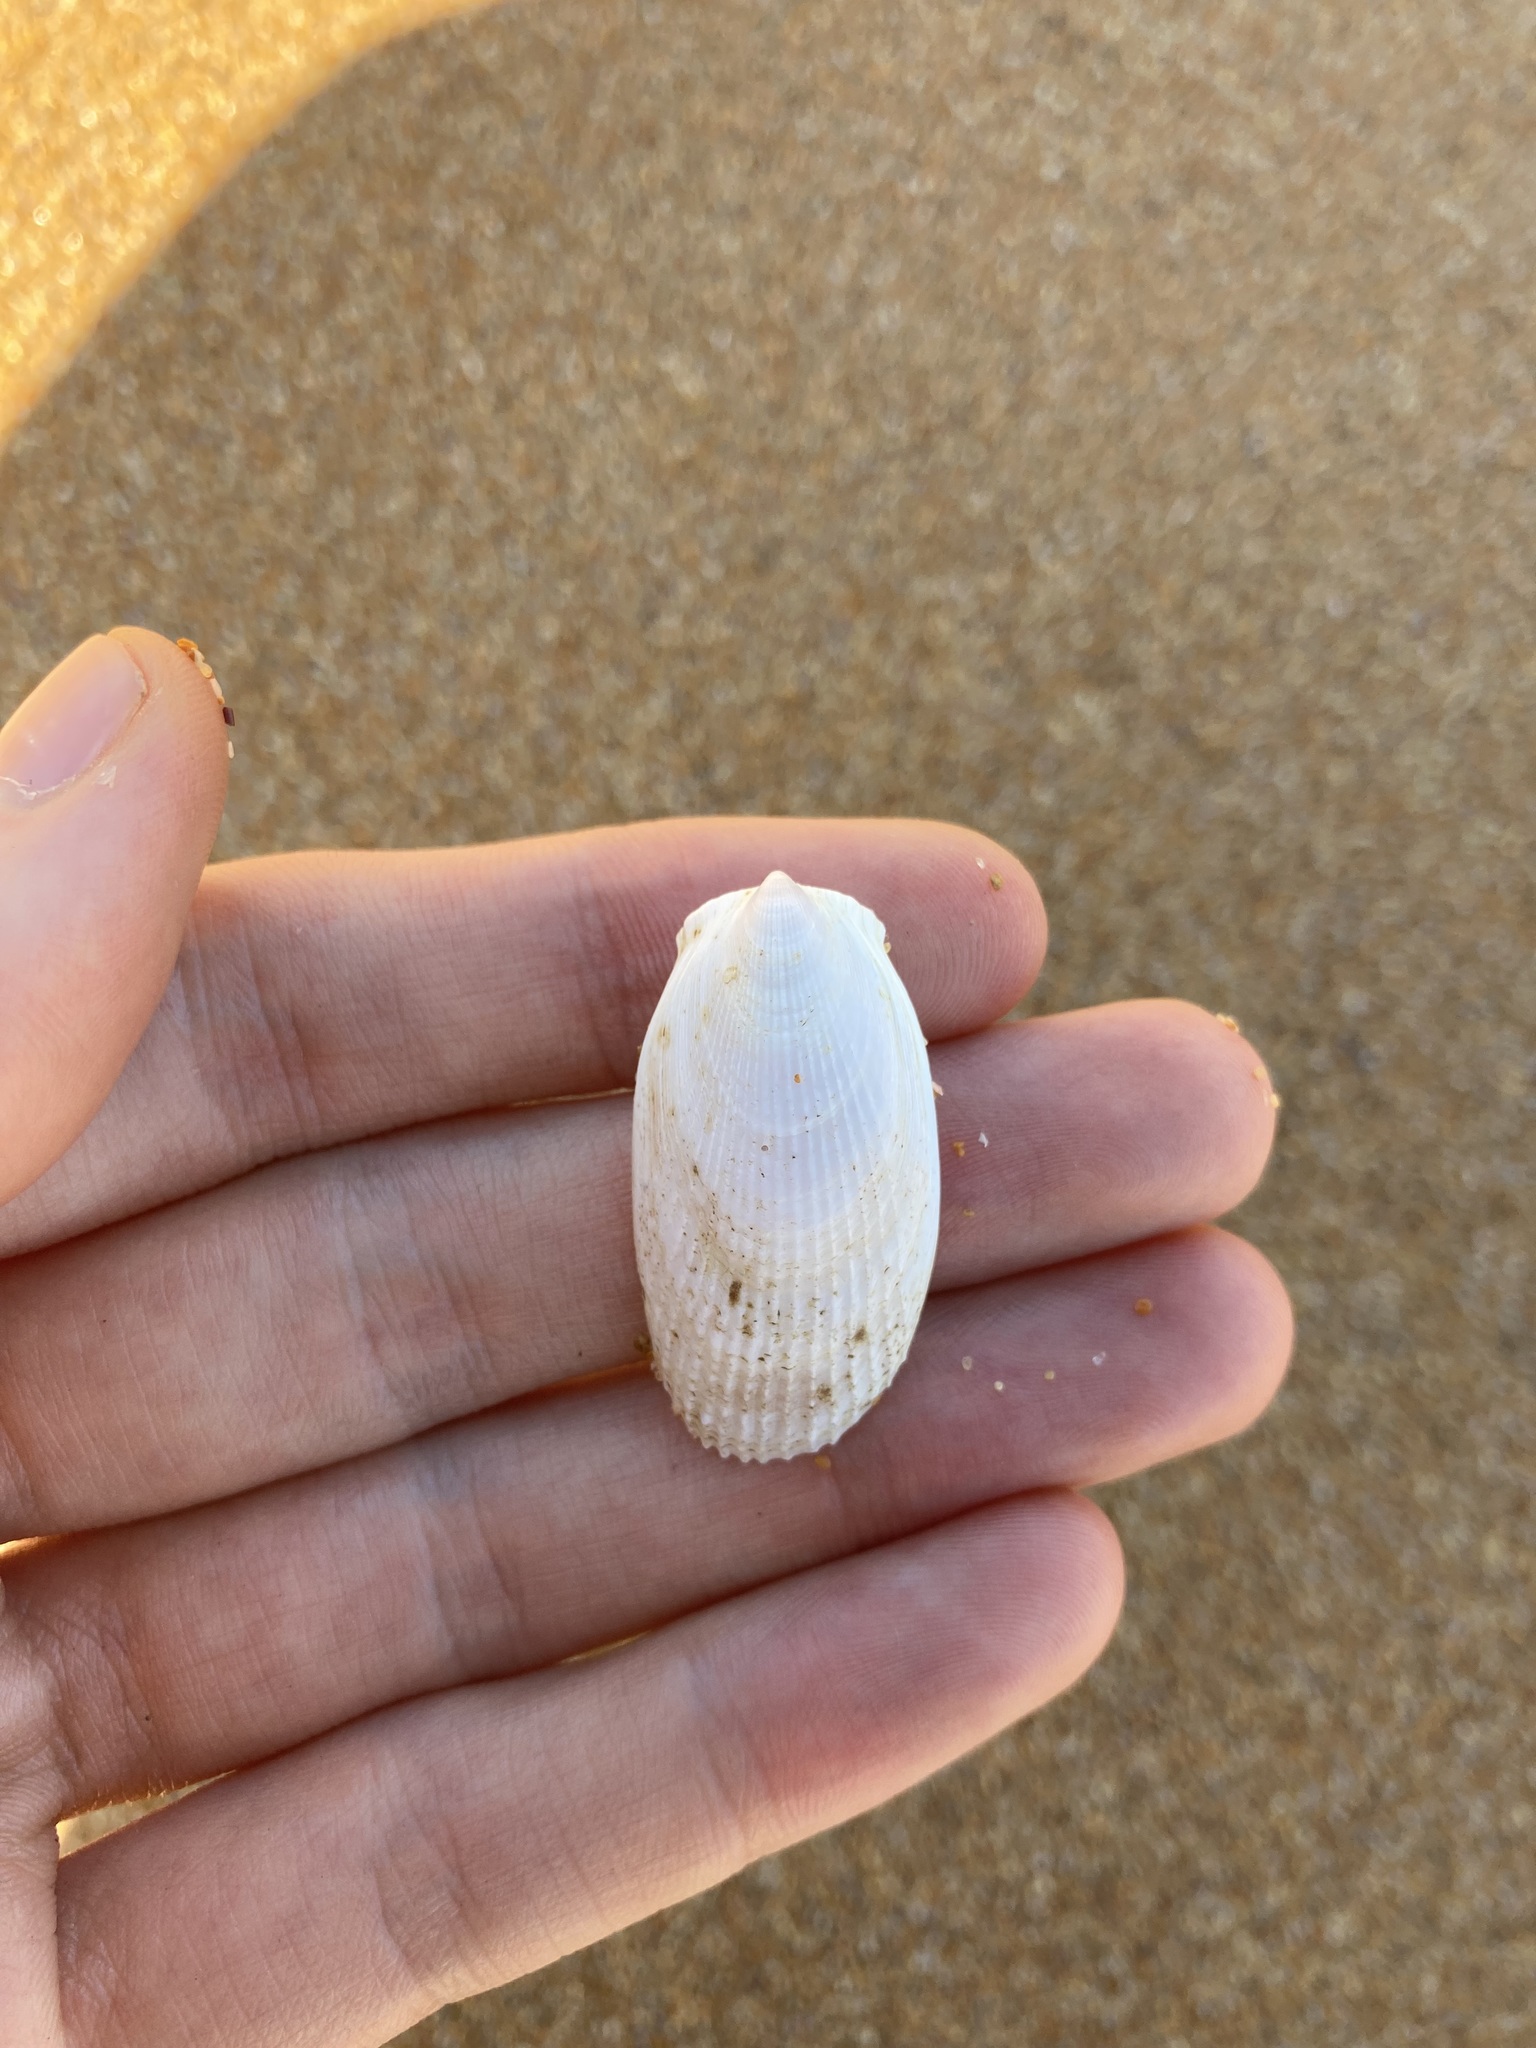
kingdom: Animalia
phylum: Mollusca
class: Bivalvia
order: Limida
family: Limidae
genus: Limatula
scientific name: Limatula strangei
